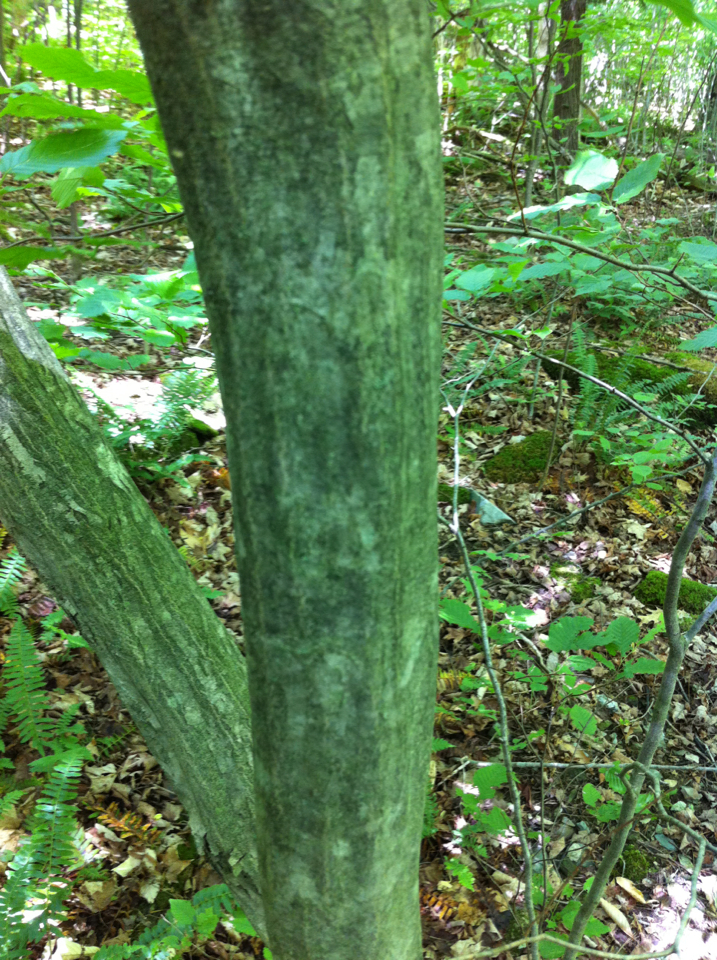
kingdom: Plantae
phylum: Tracheophyta
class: Magnoliopsida
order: Fagales
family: Betulaceae
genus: Carpinus
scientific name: Carpinus caroliniana
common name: American hornbeam
